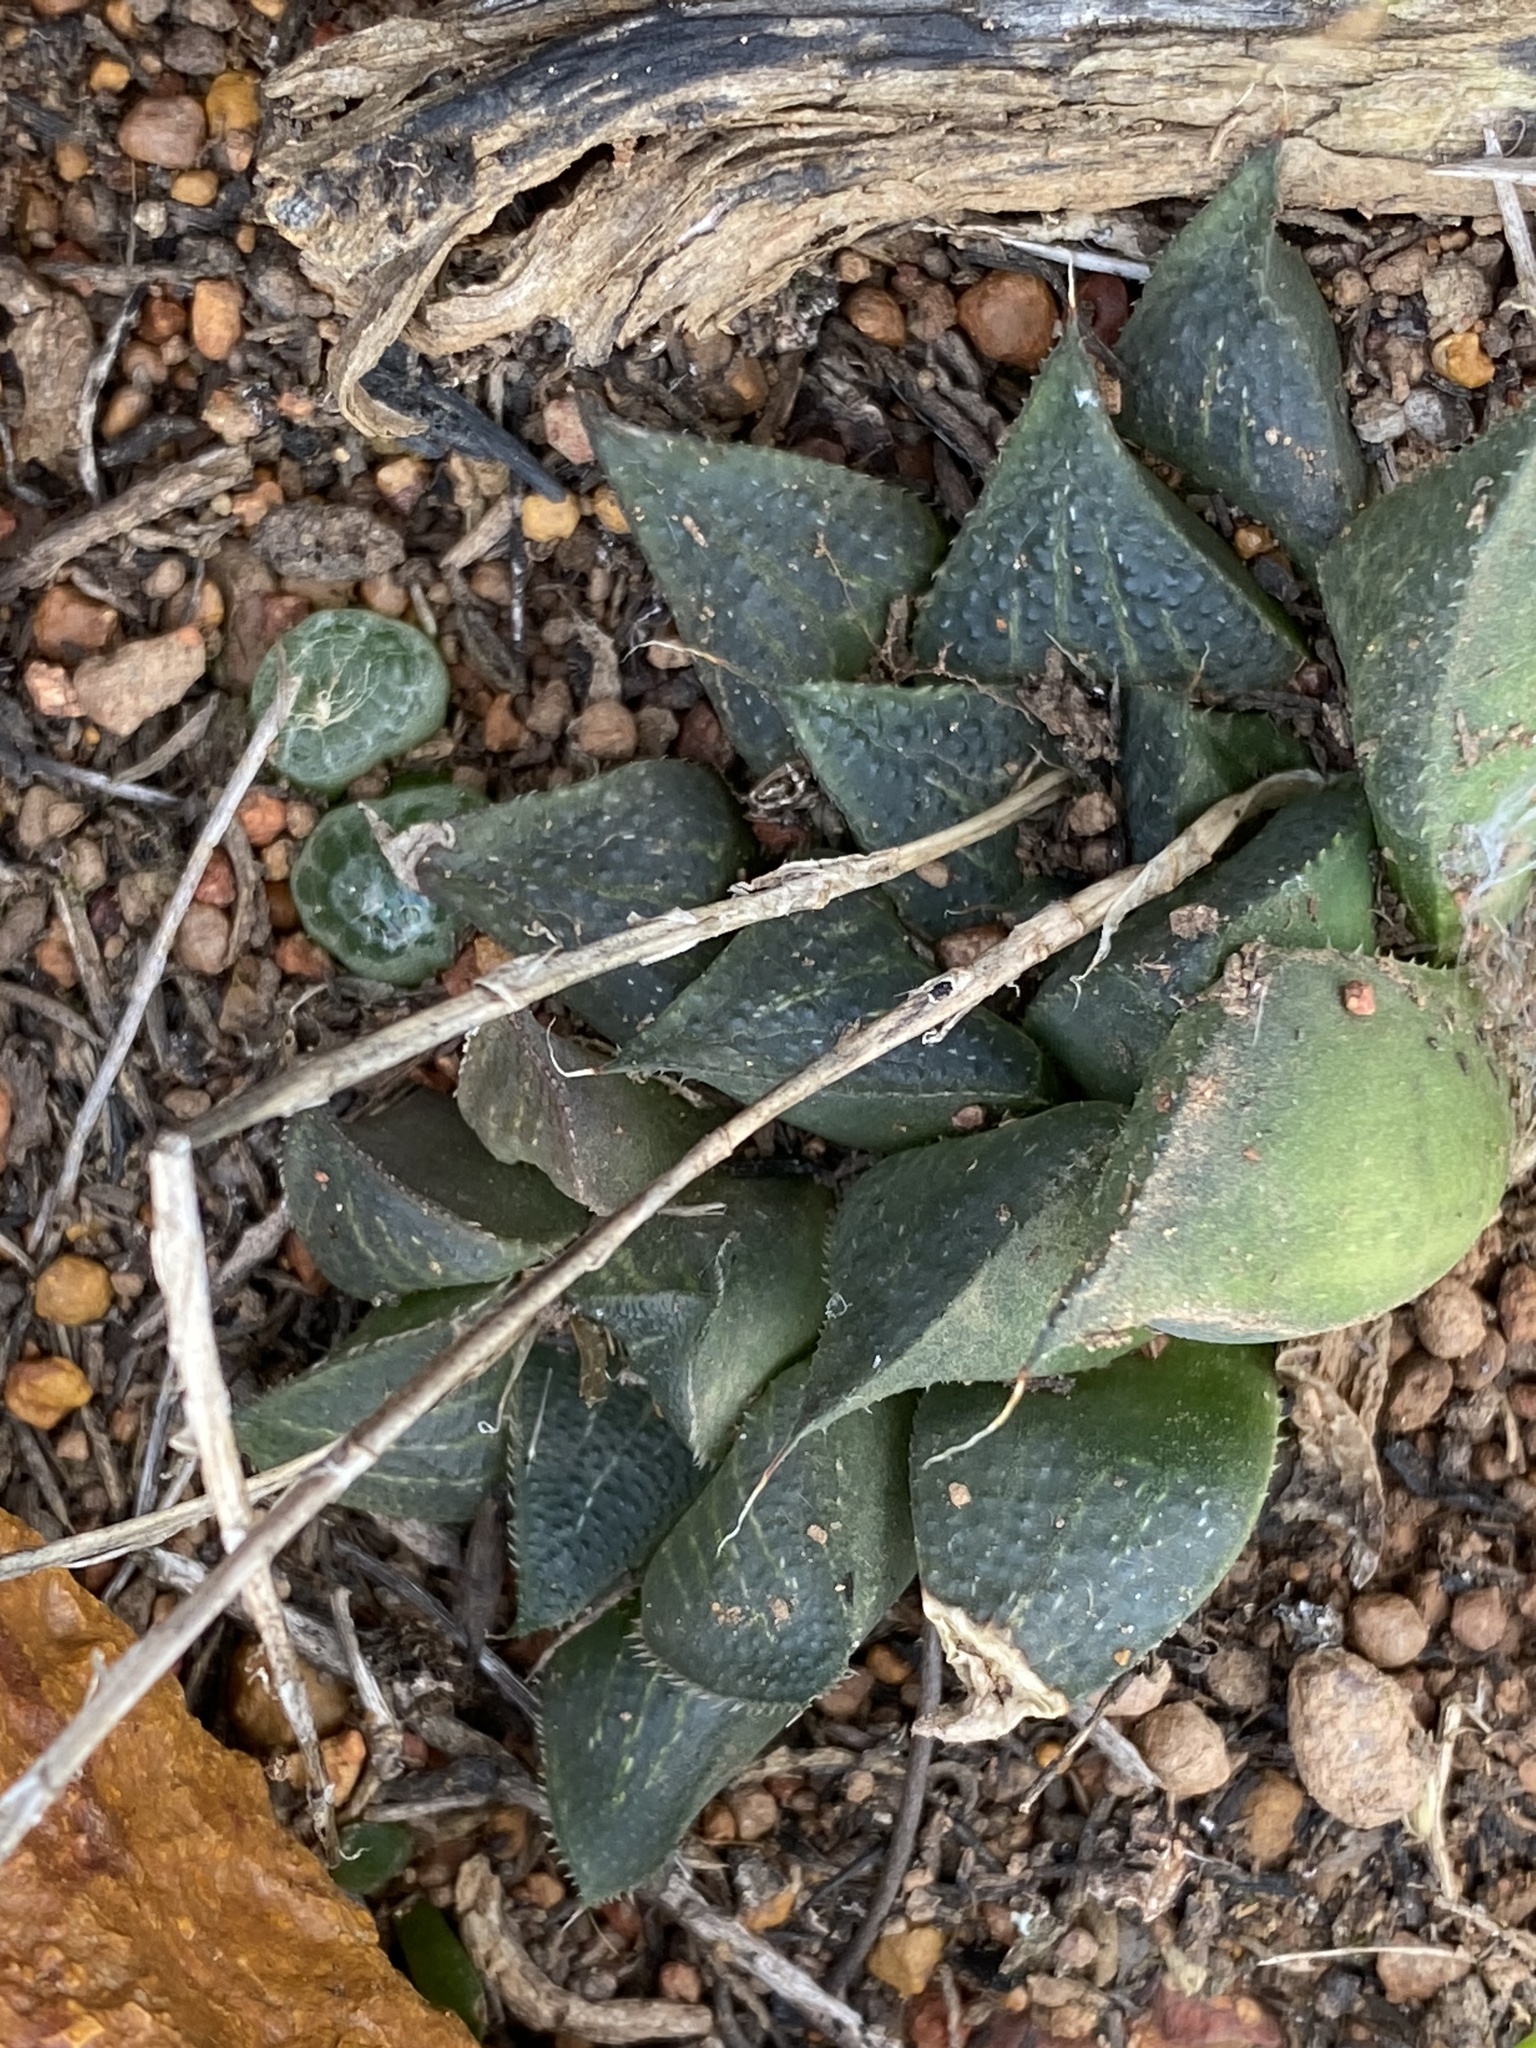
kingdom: Plantae
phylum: Tracheophyta
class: Liliopsida
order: Asparagales
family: Asphodelaceae
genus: Haworthia
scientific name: Haworthia magnifica
